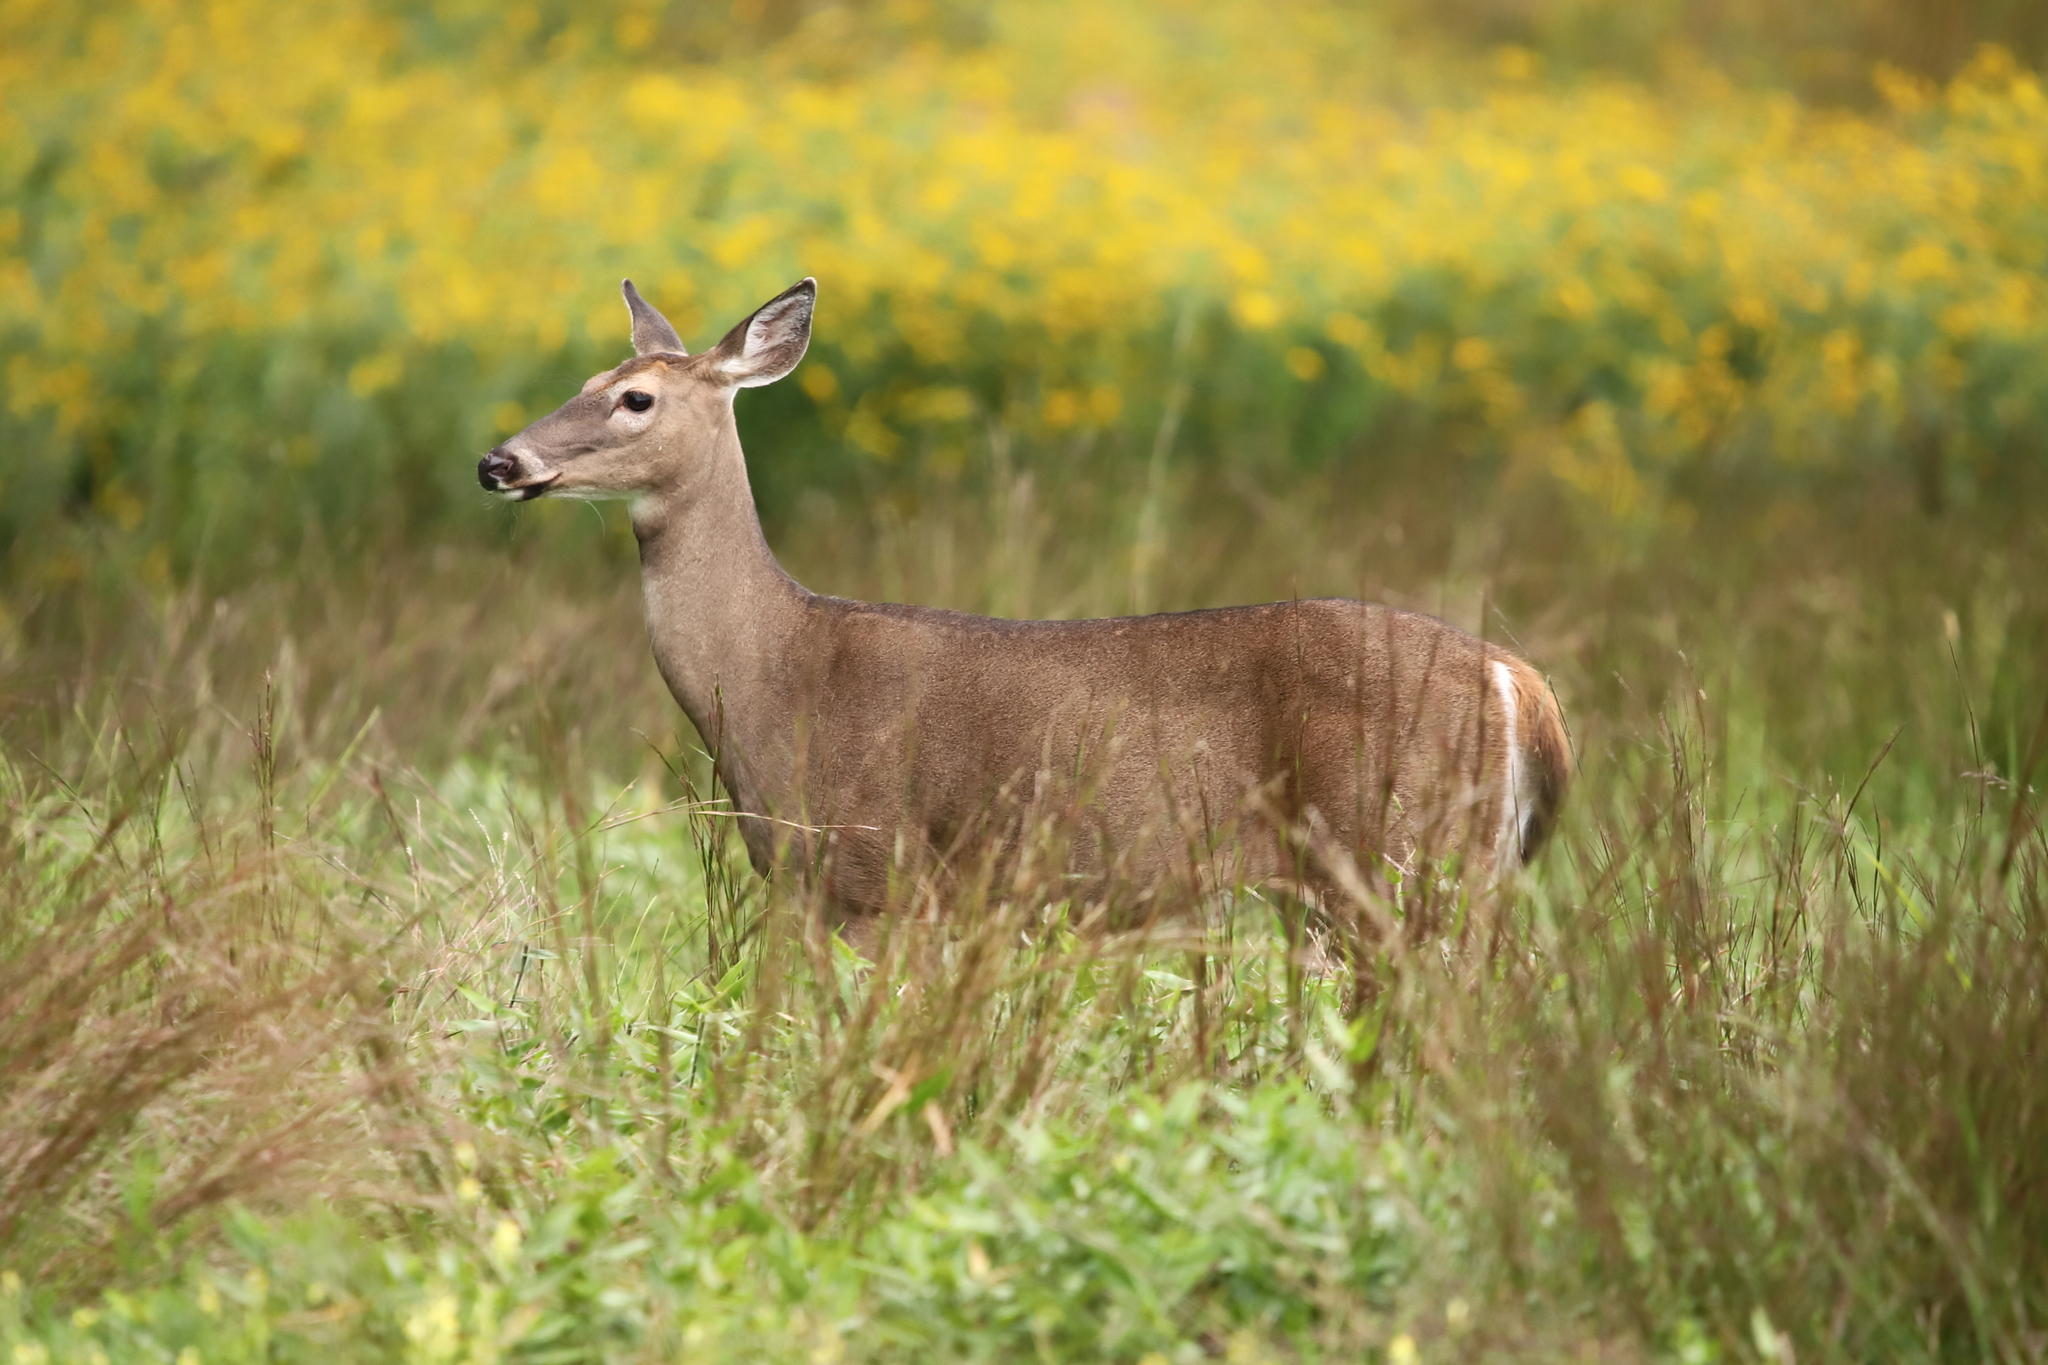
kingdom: Animalia
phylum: Chordata
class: Mammalia
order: Artiodactyla
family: Cervidae
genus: Odocoileus
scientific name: Odocoileus virginianus
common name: White-tailed deer
